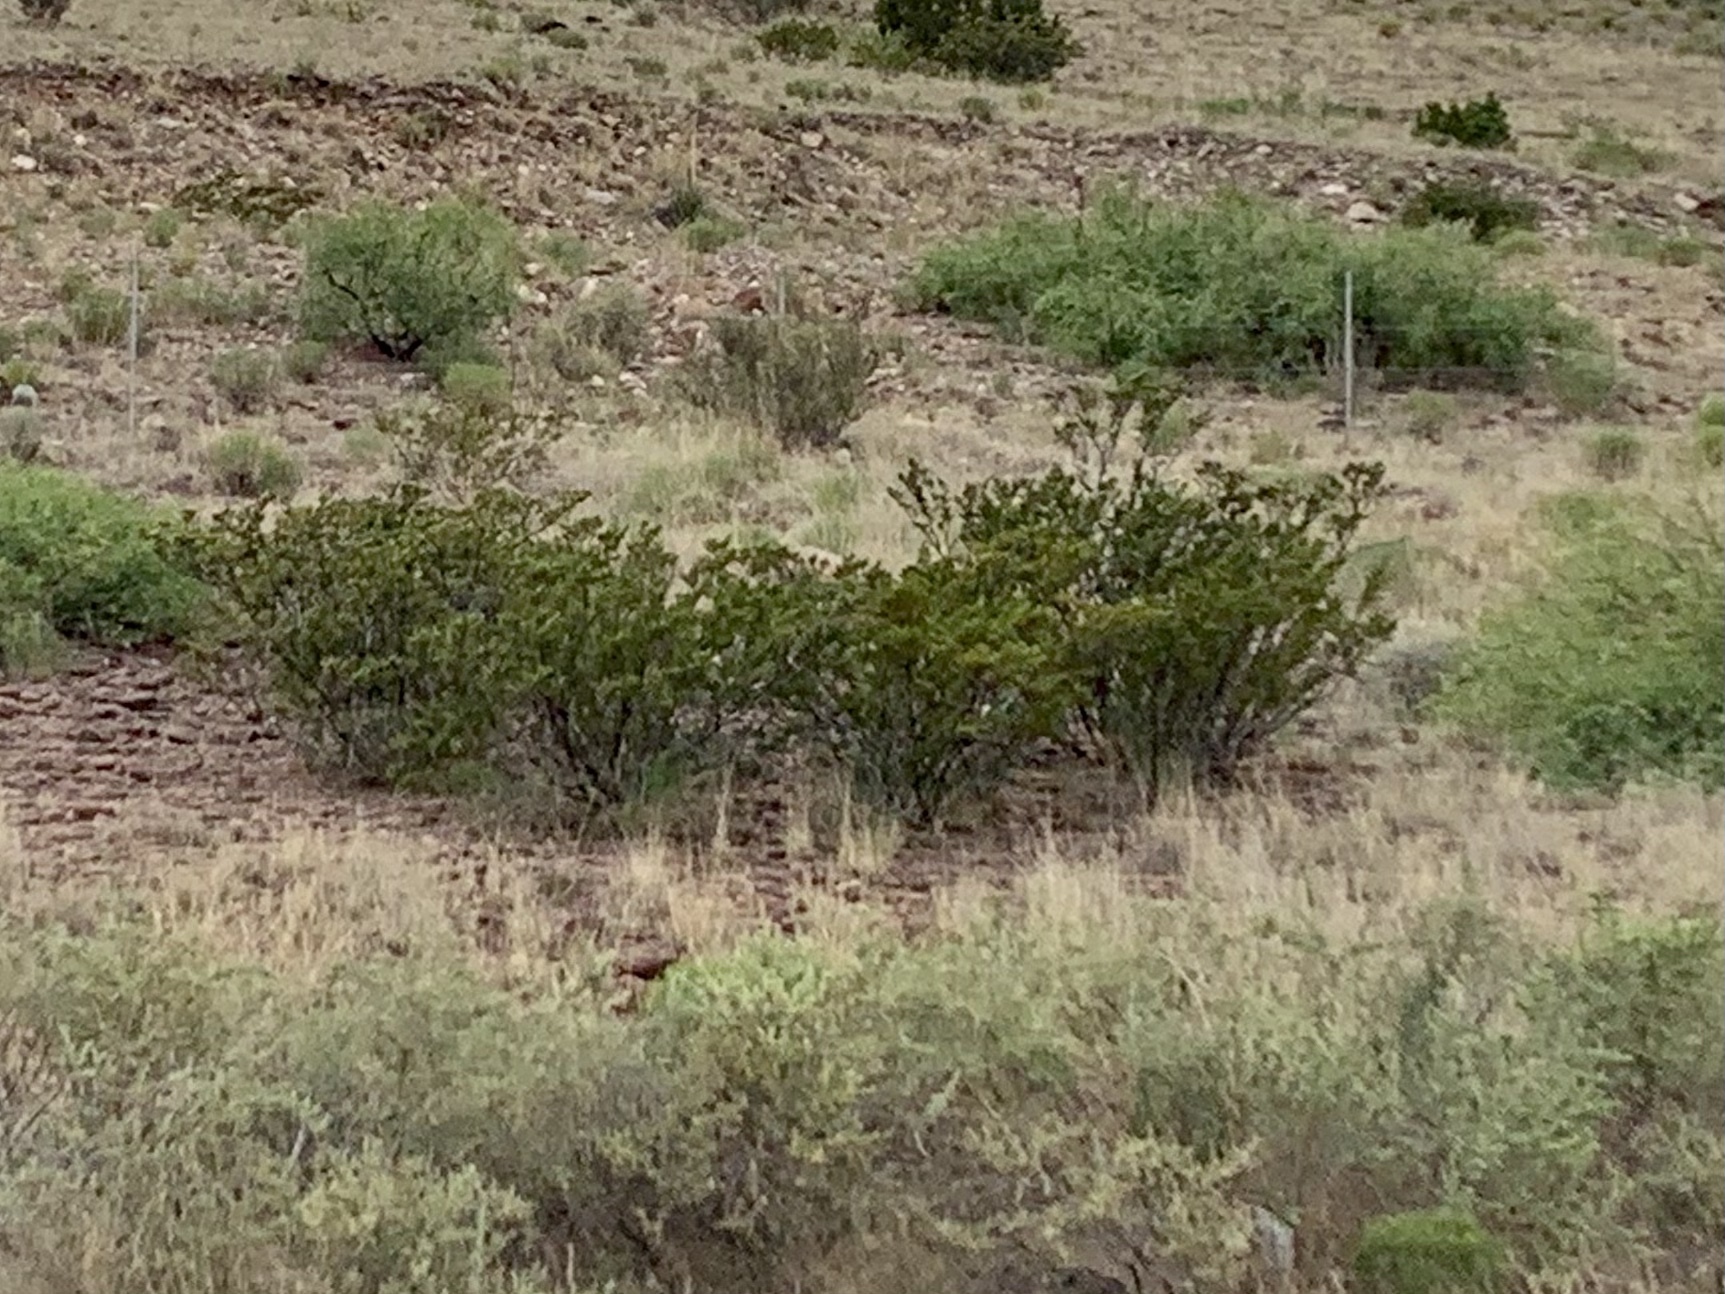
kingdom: Plantae
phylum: Tracheophyta
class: Magnoliopsida
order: Zygophyllales
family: Zygophyllaceae
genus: Larrea
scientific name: Larrea tridentata
